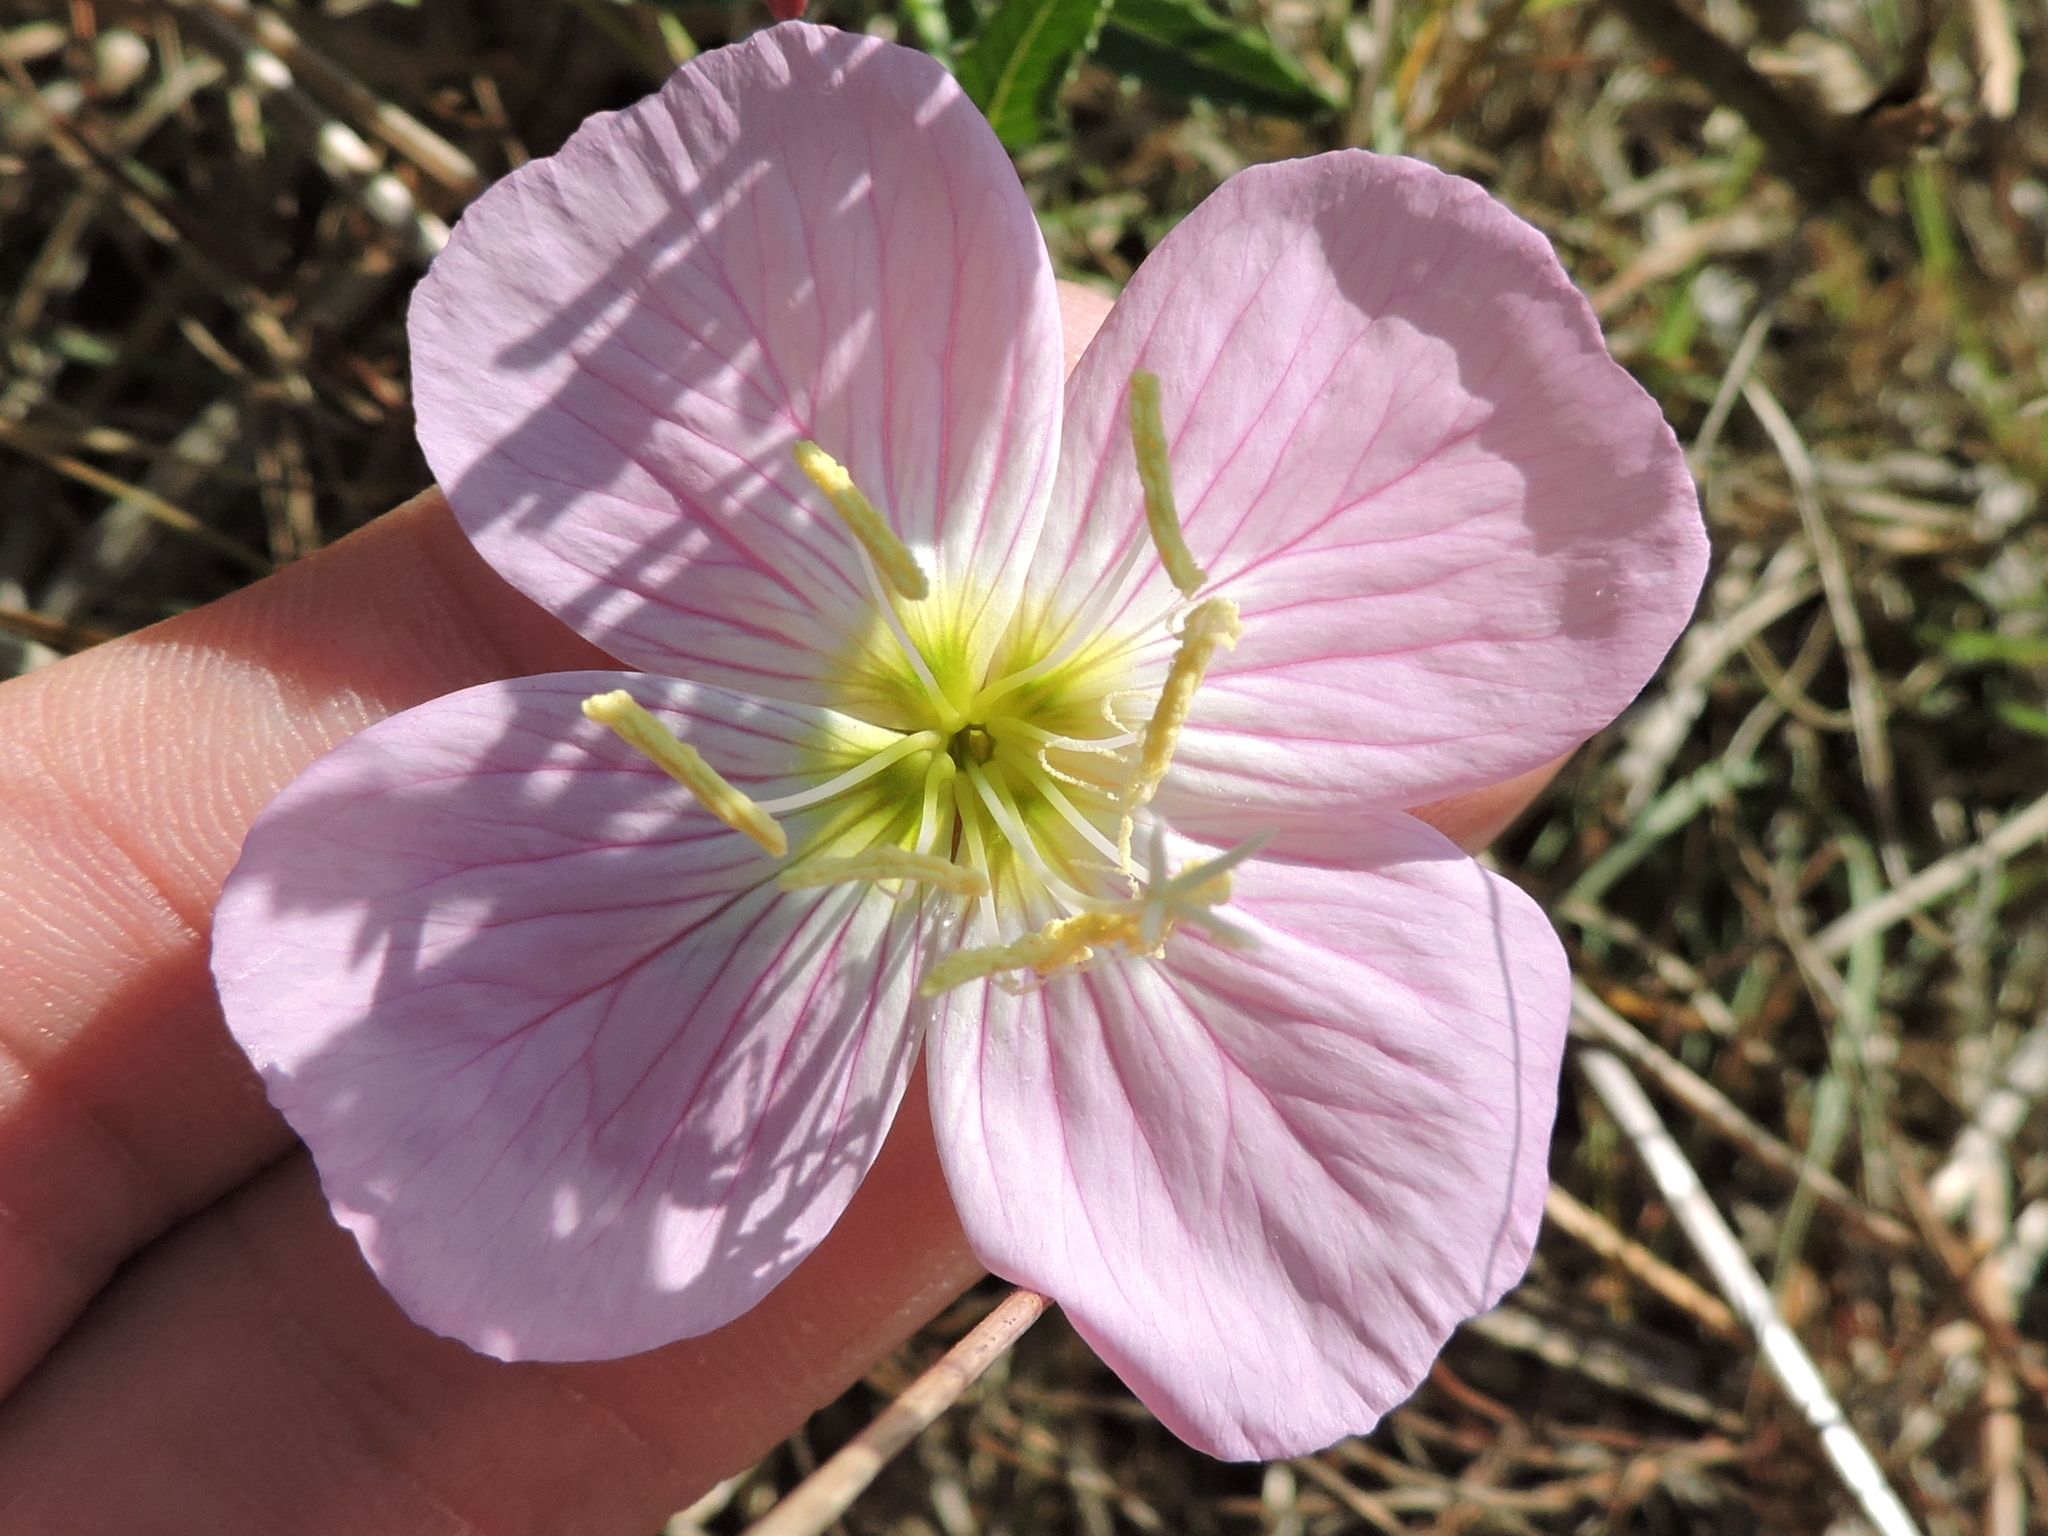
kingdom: Plantae
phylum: Tracheophyta
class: Magnoliopsida
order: Myrtales
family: Onagraceae
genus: Oenothera
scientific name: Oenothera speciosa
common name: White evening-primrose
